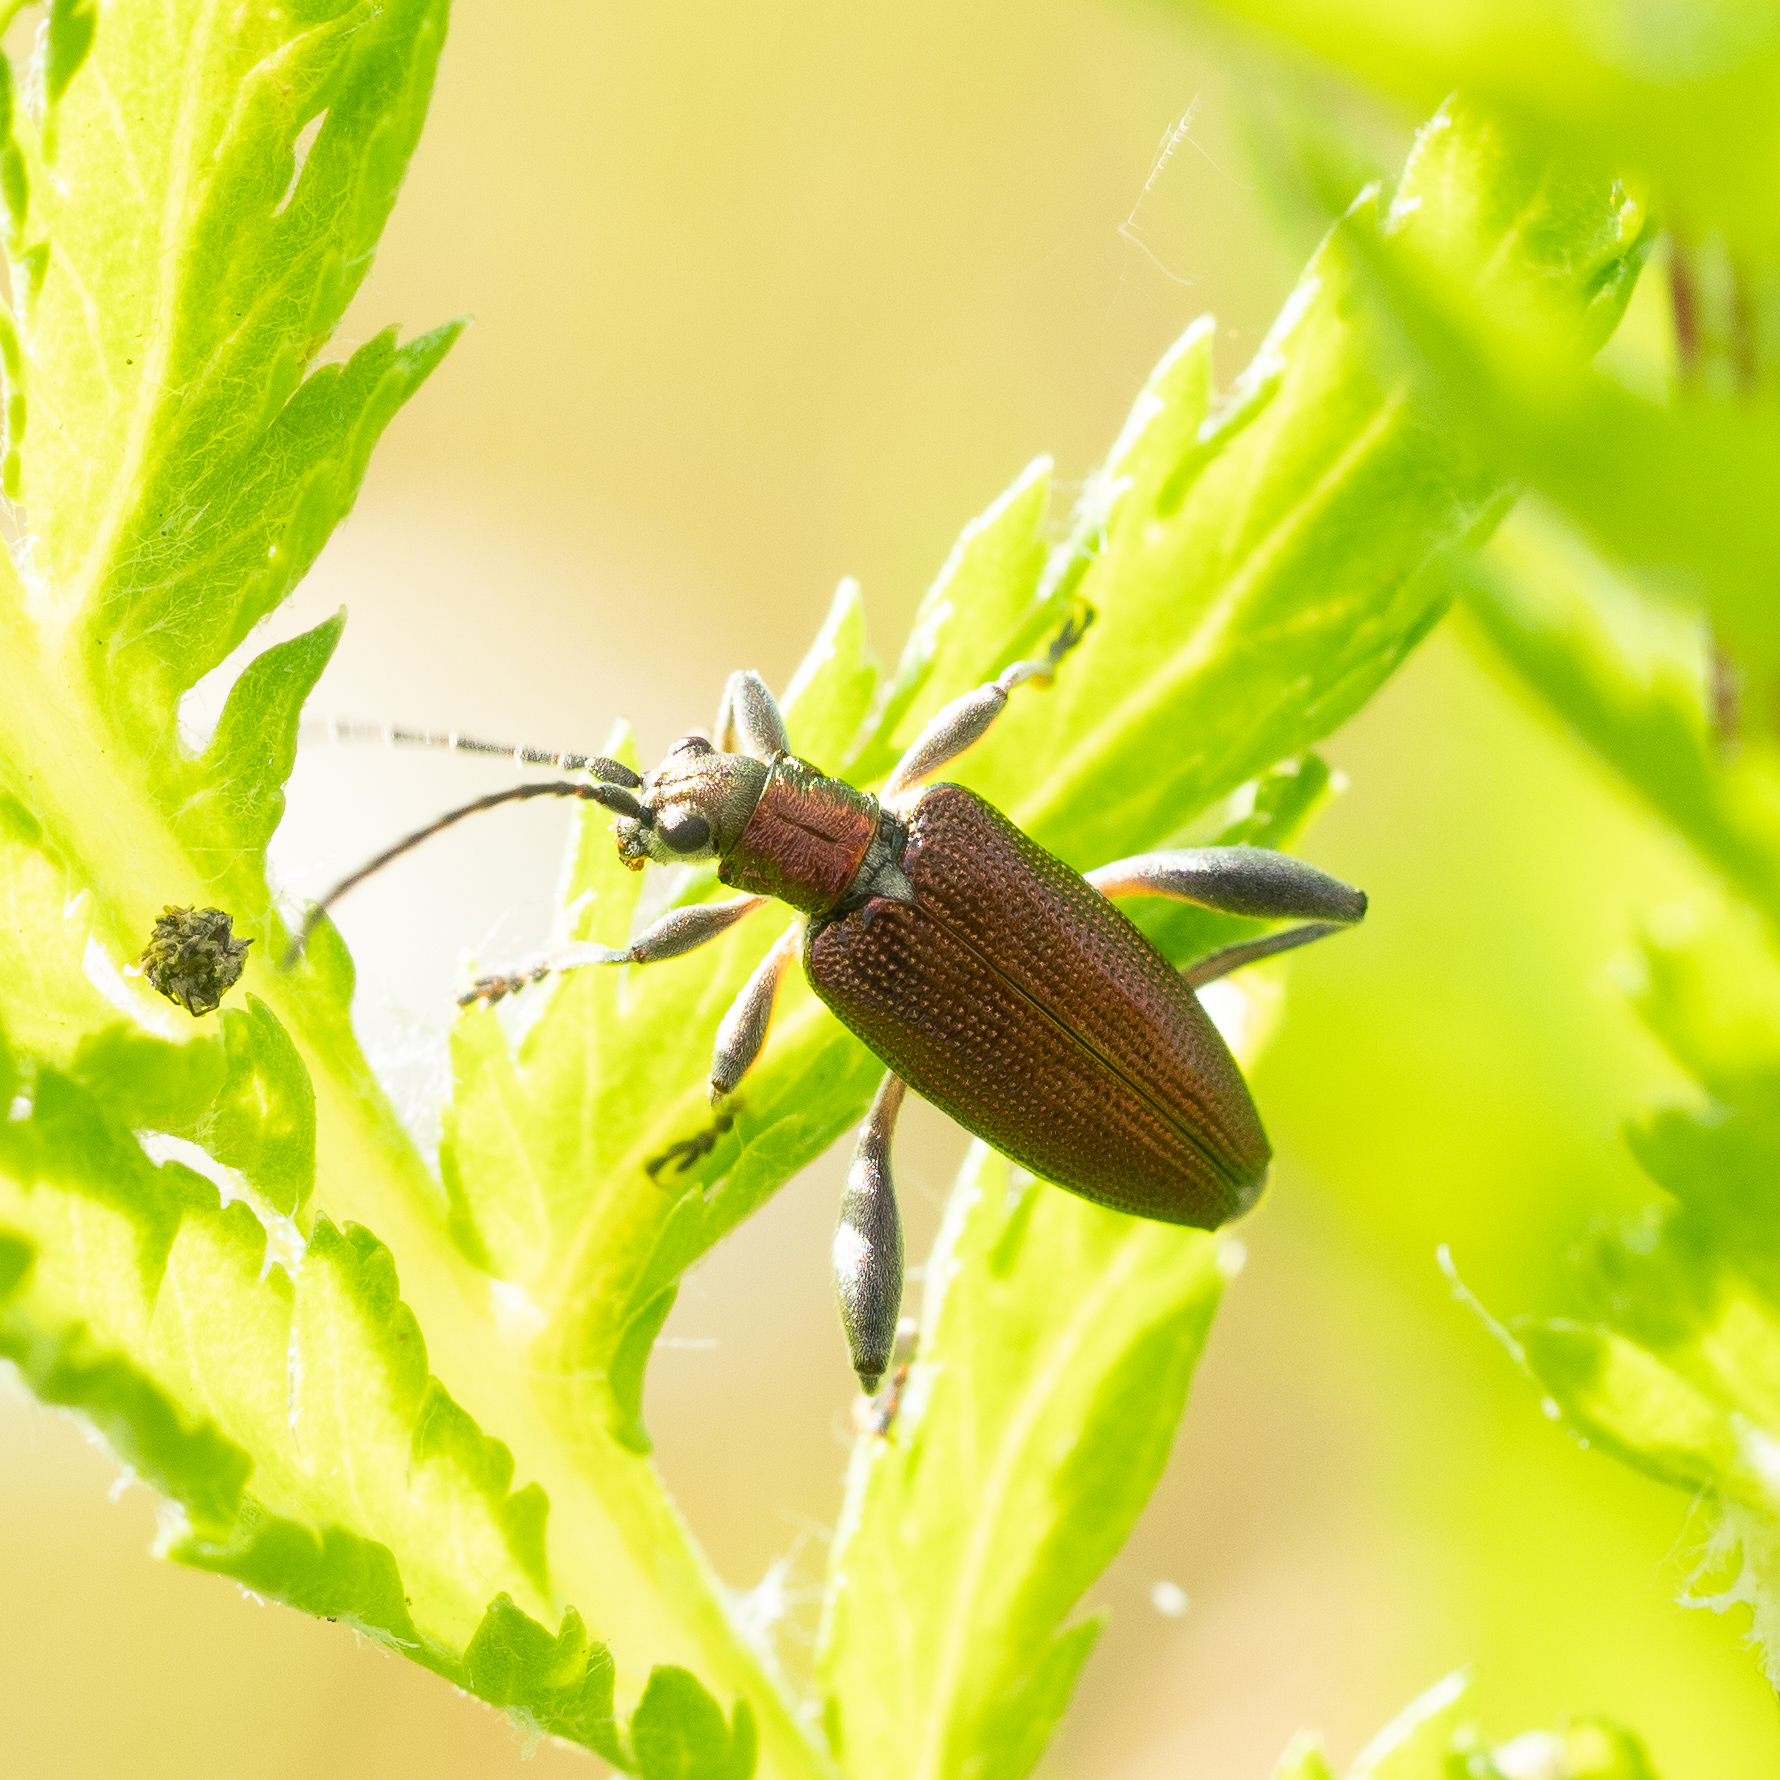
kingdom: Animalia
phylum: Arthropoda
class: Insecta
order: Coleoptera
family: Chrysomelidae
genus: Donacia
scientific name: Donacia crassipes
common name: Water-lily reed beetle
